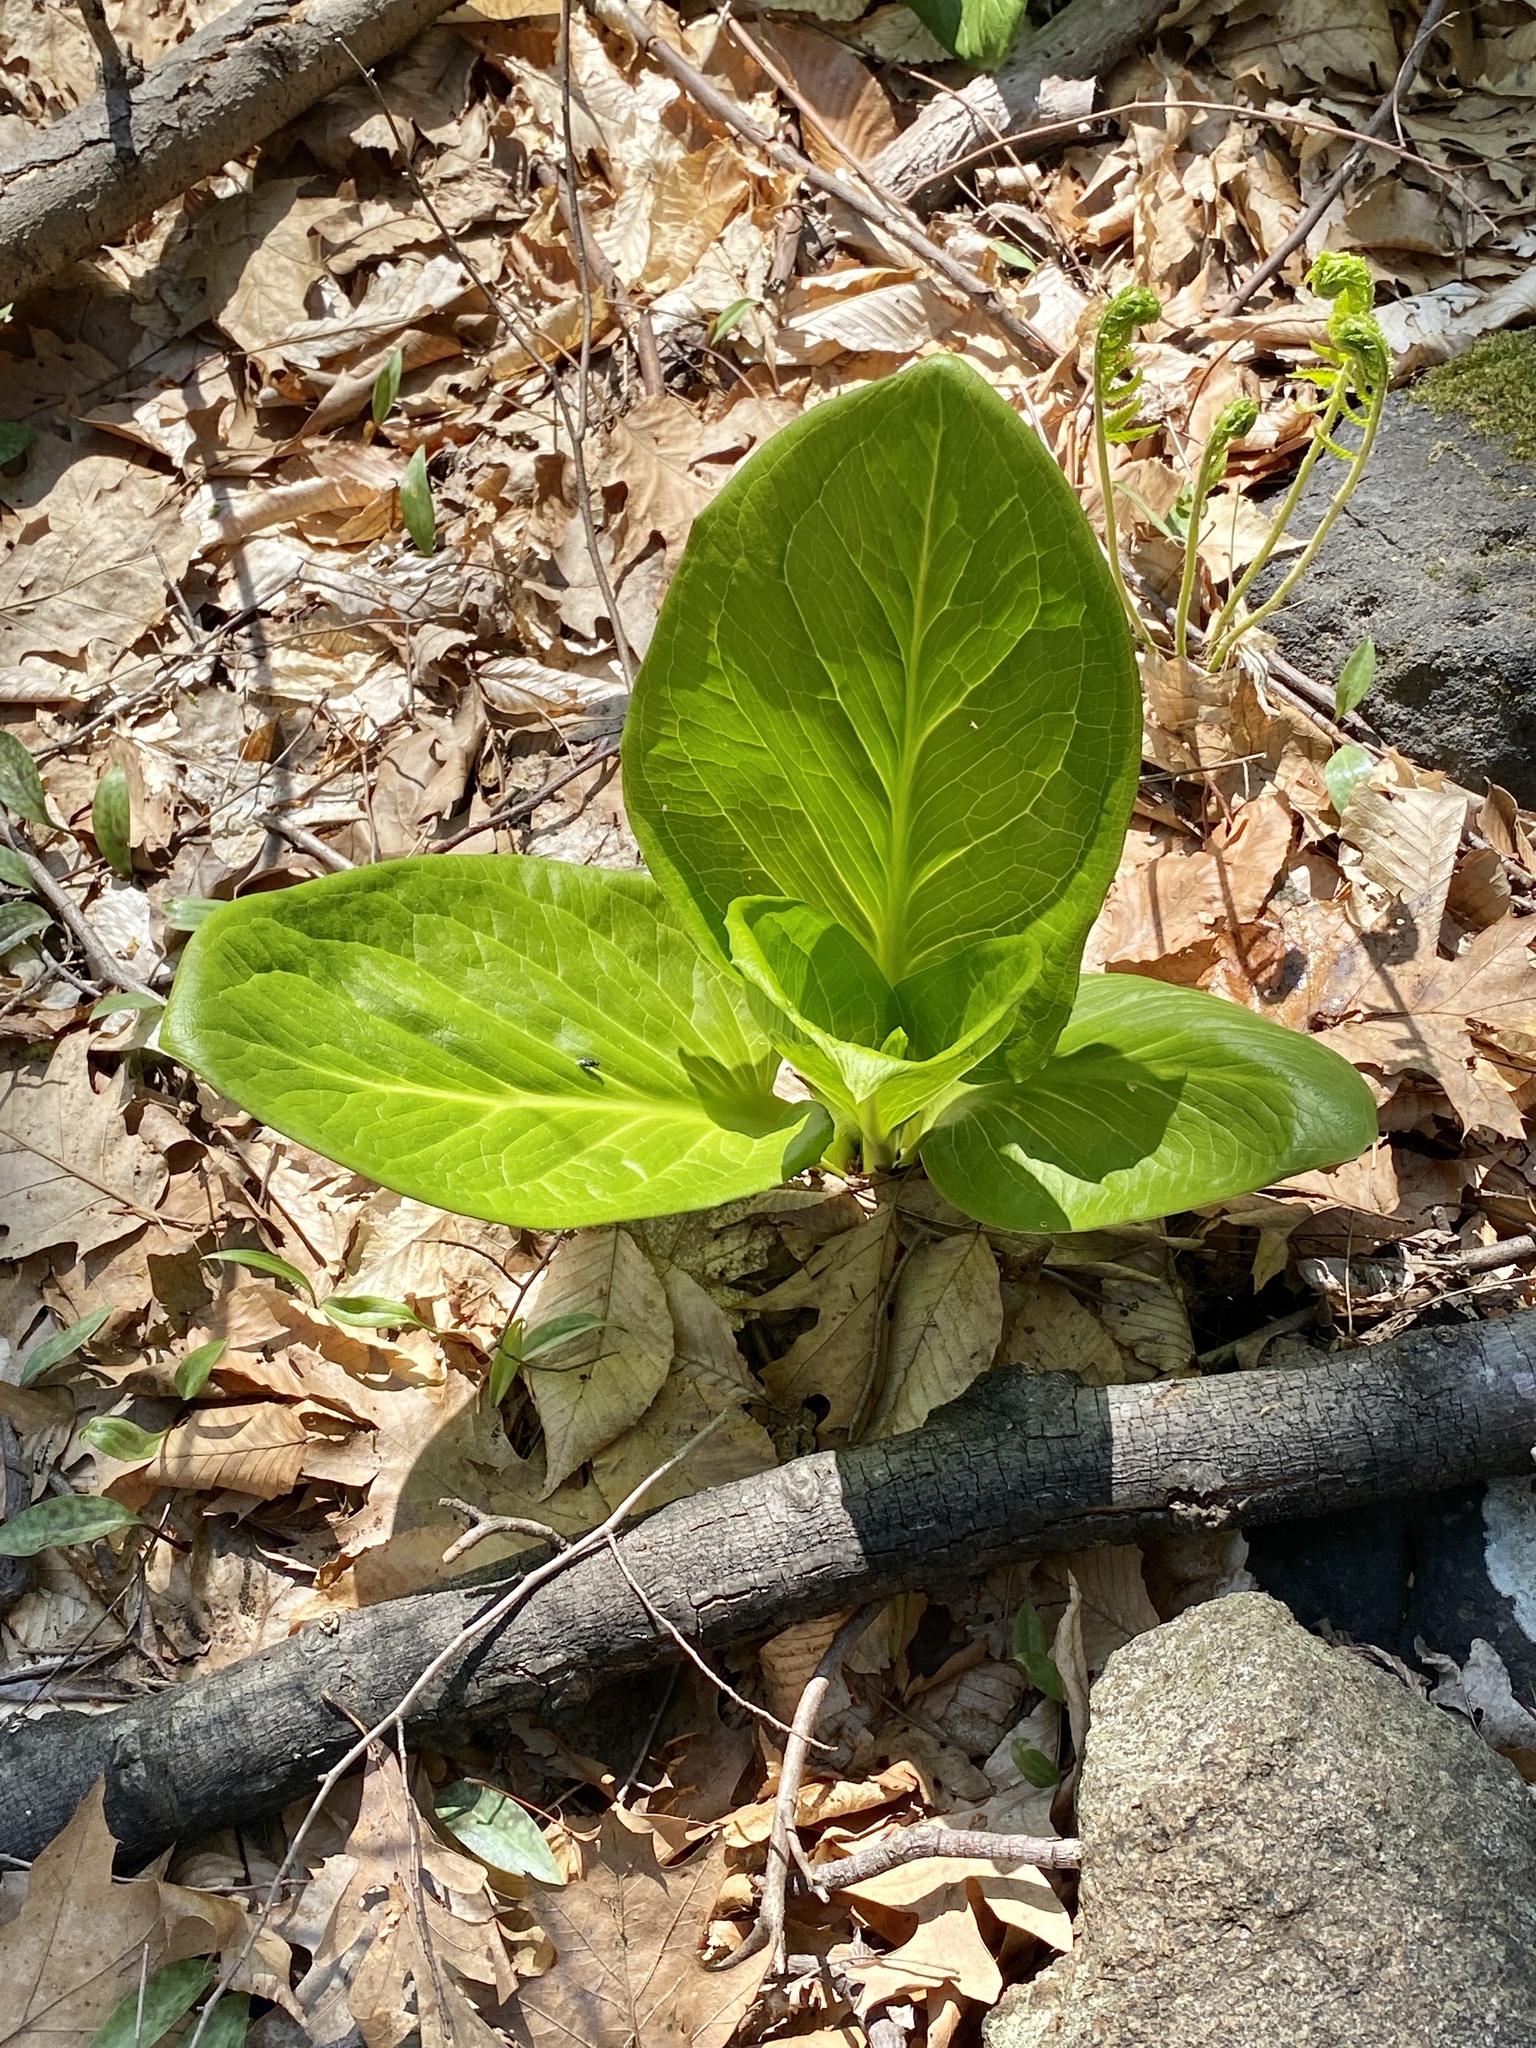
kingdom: Plantae
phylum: Tracheophyta
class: Liliopsida
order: Alismatales
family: Araceae
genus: Symplocarpus
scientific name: Symplocarpus foetidus
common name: Eastern skunk cabbage
